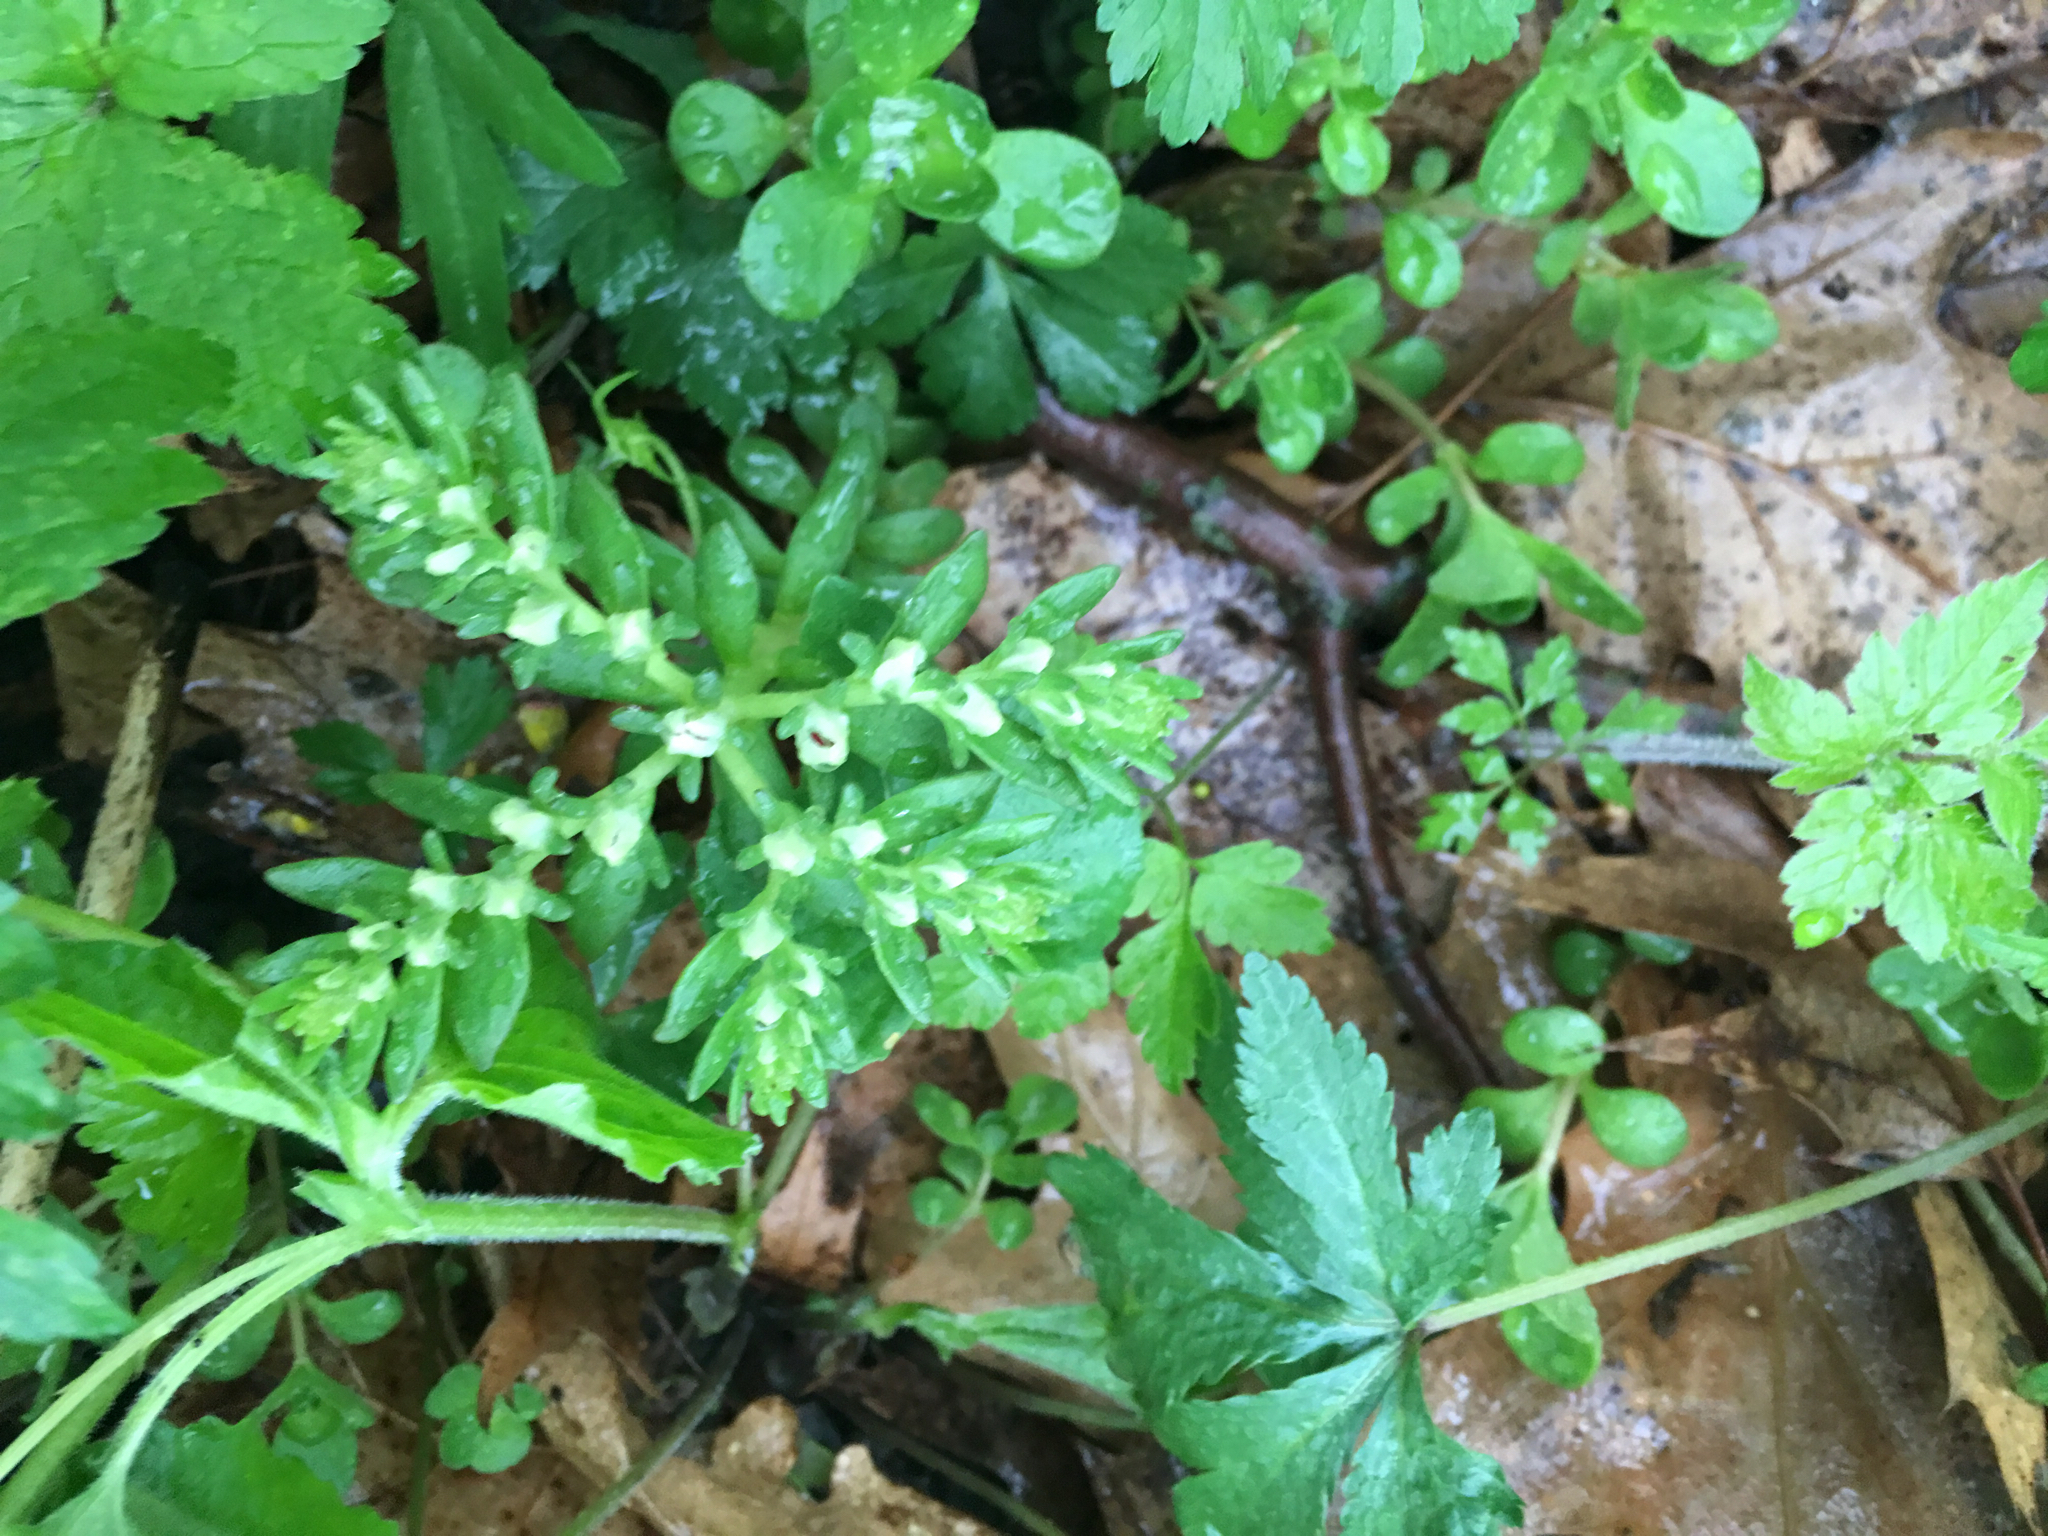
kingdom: Plantae
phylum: Tracheophyta
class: Magnoliopsida
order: Saxifragales
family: Crassulaceae
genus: Sedum
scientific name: Sedum ternatum
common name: Wild stonecrop
